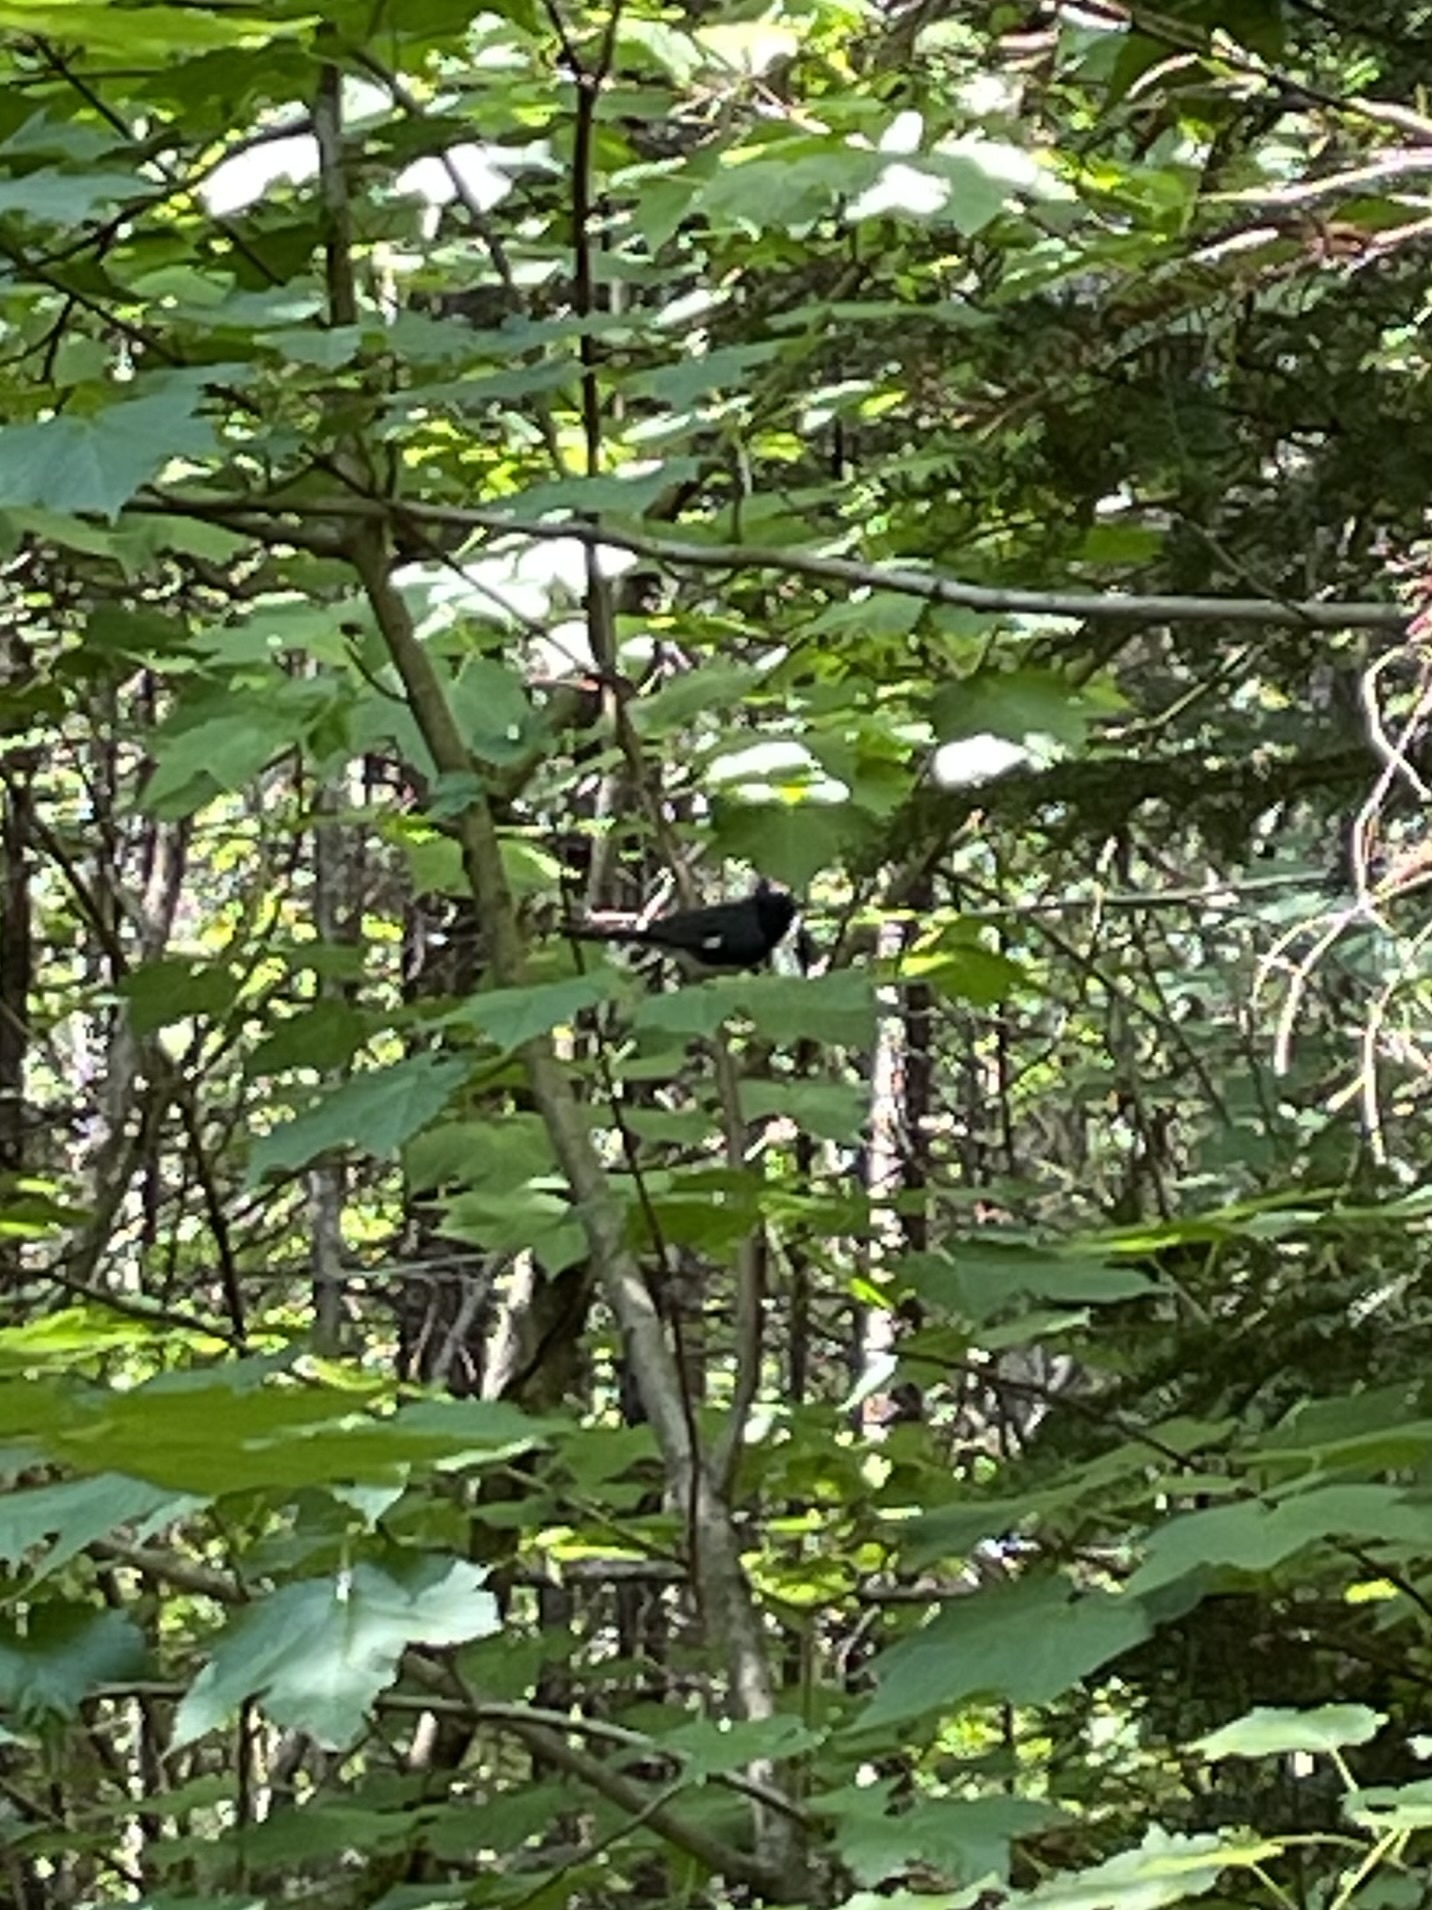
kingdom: Animalia
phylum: Chordata
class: Aves
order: Passeriformes
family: Parulidae
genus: Setophaga
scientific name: Setophaga caerulescens
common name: Black-throated blue warbler
